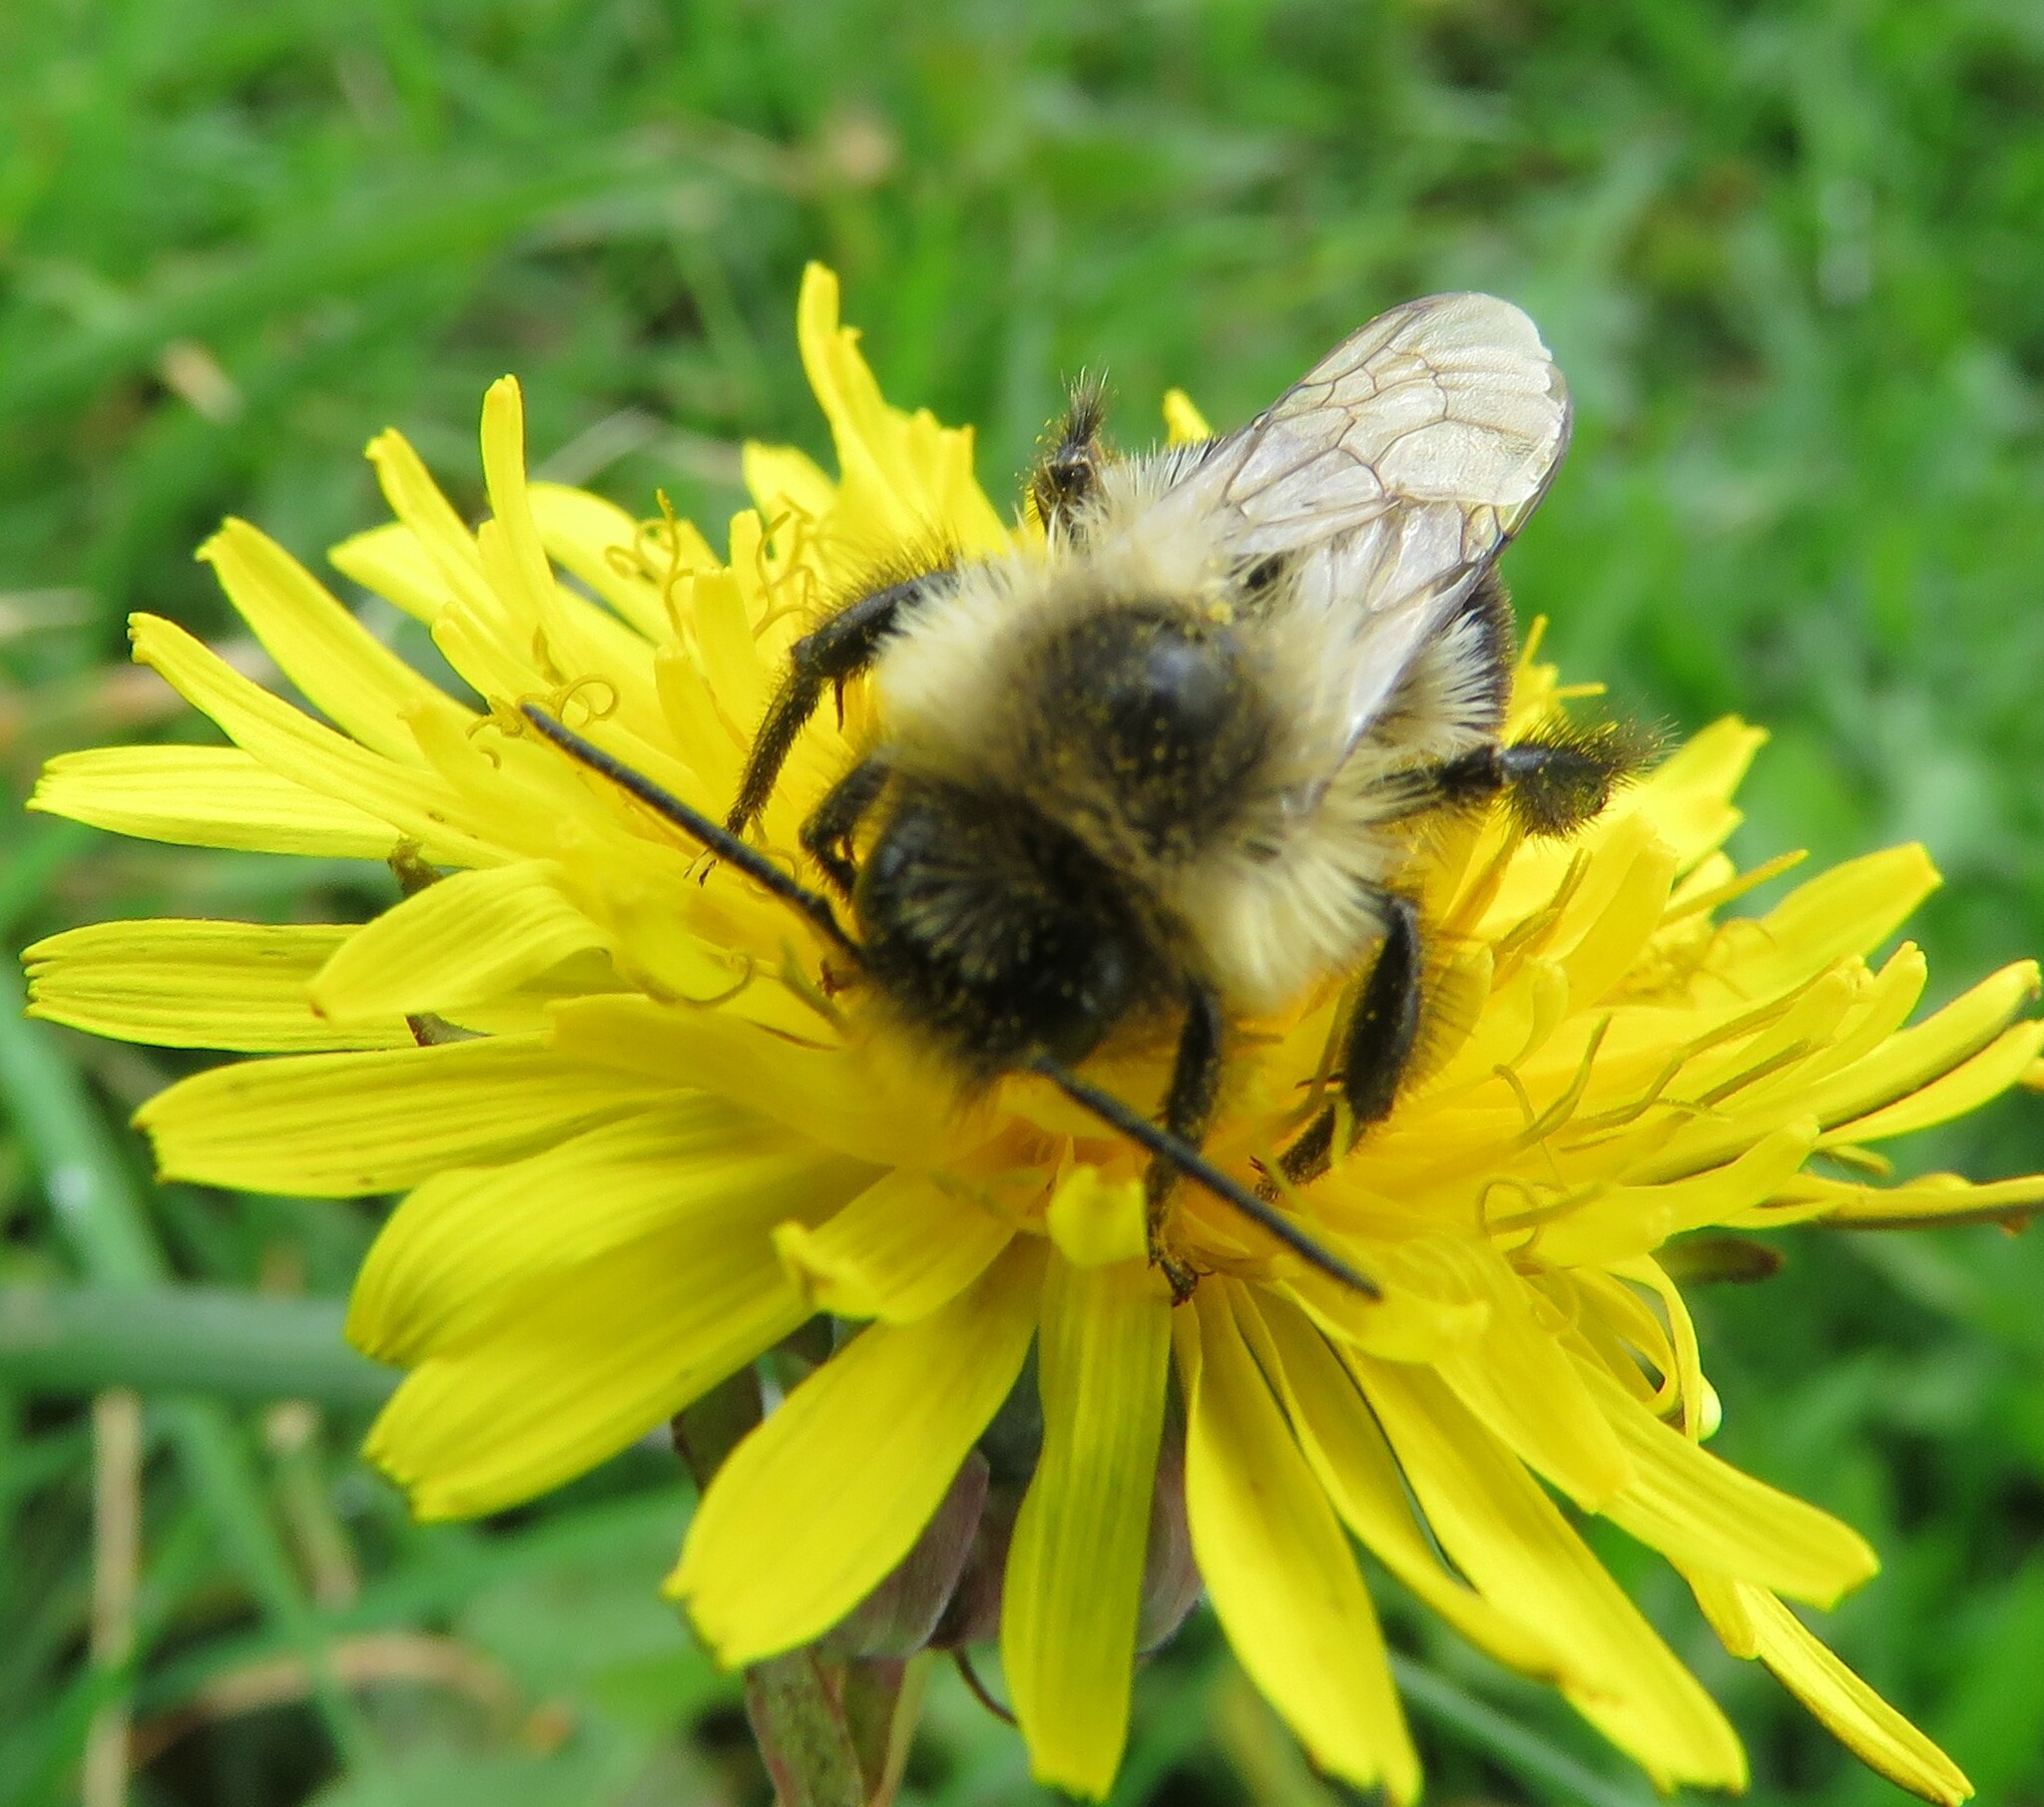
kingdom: Animalia
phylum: Arthropoda
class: Insecta
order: Hymenoptera
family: Apidae
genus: Bombus
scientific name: Bombus impatiens
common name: Common eastern bumble bee
